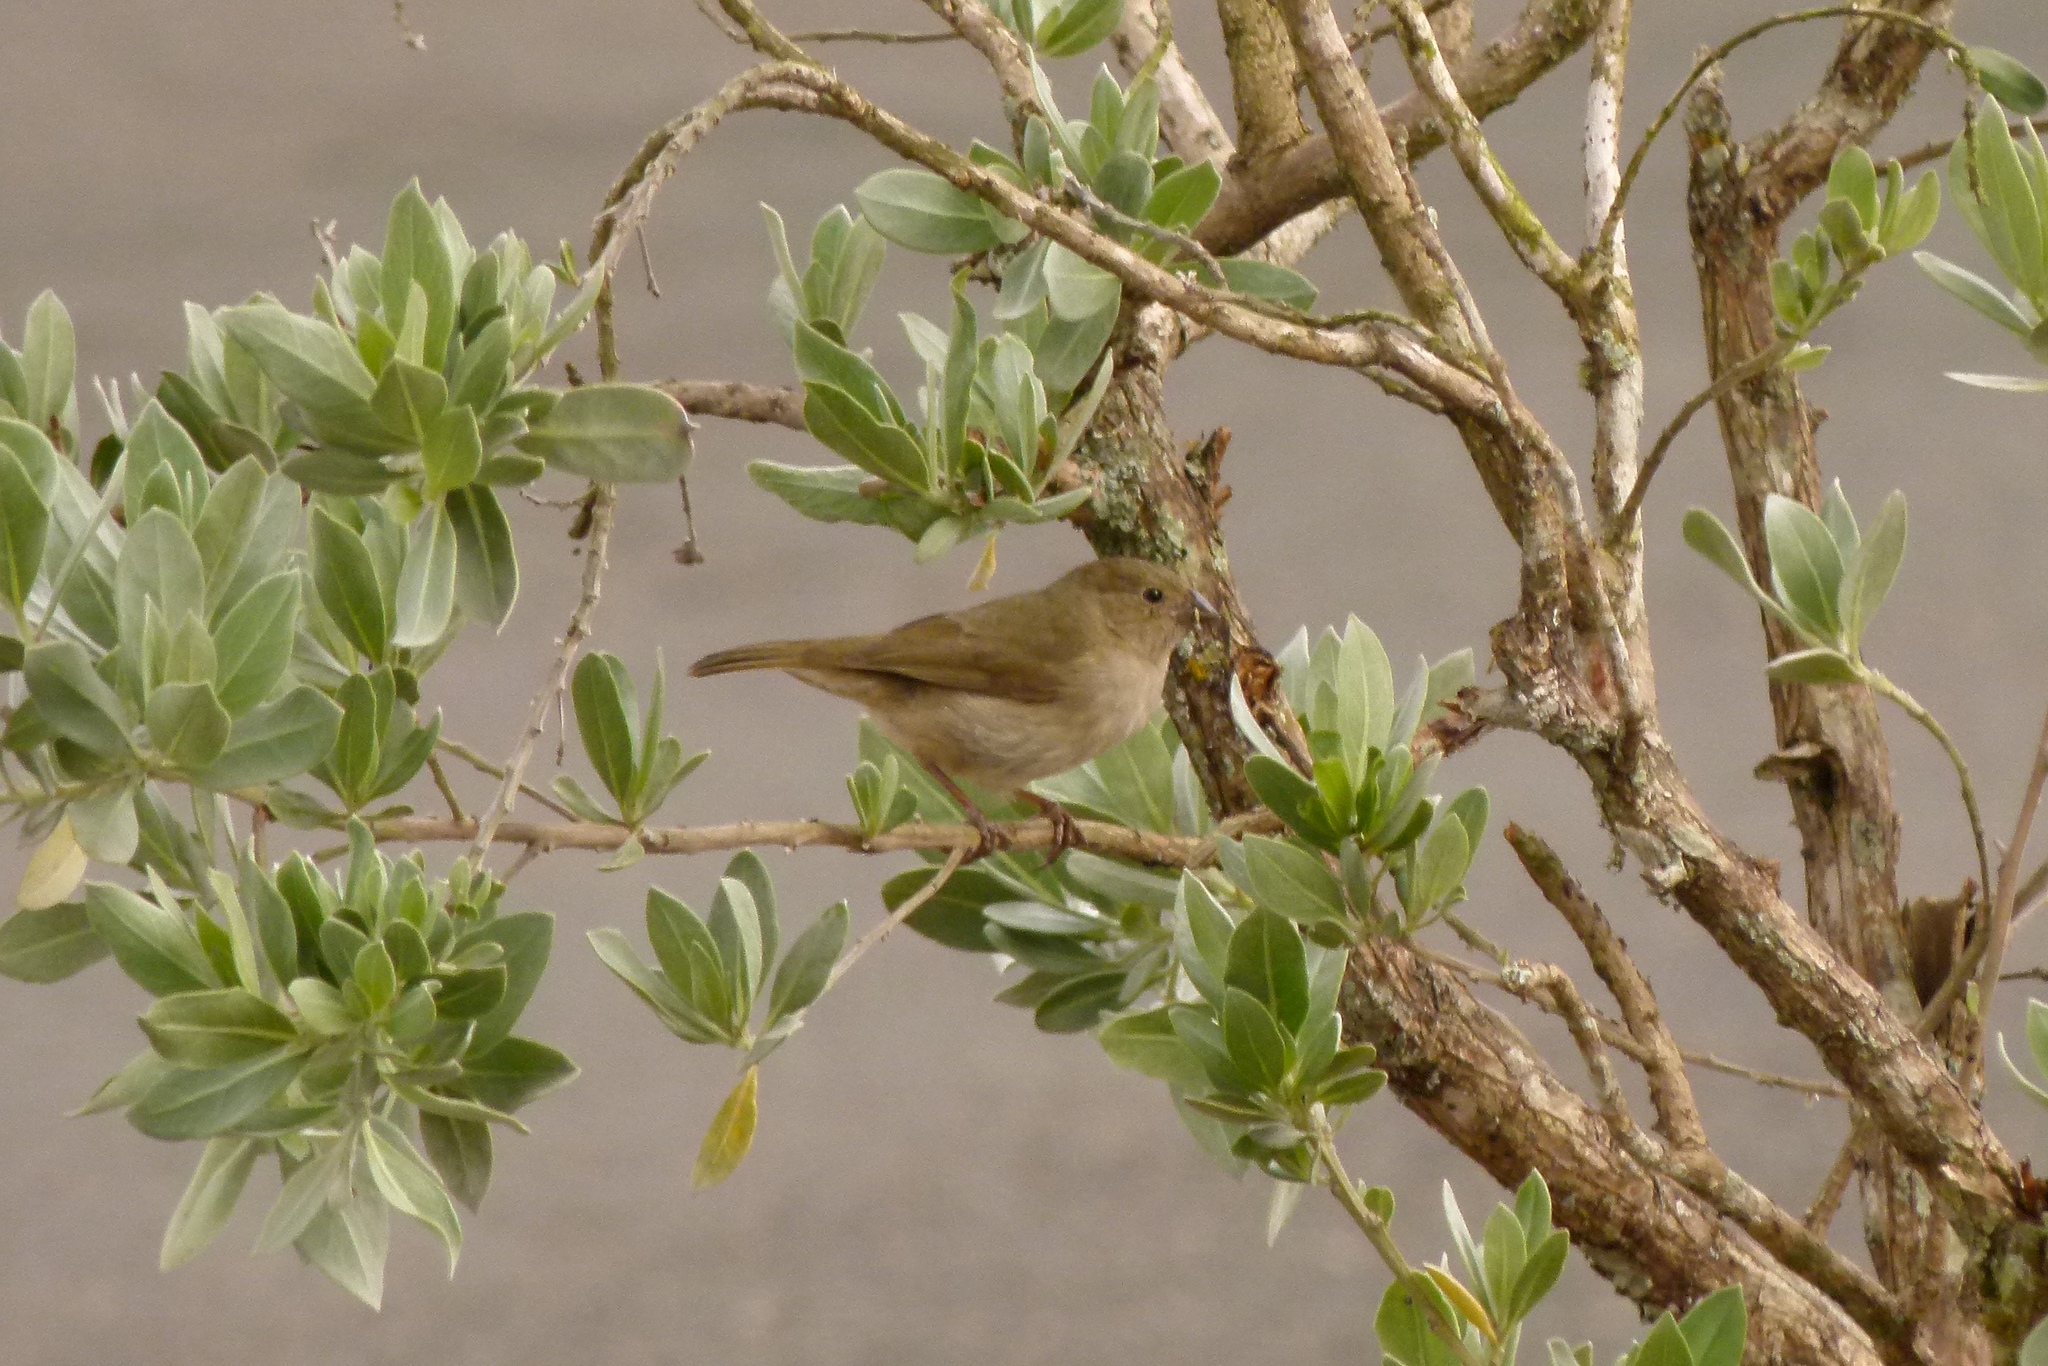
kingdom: Animalia
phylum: Chordata
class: Aves
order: Passeriformes
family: Thraupidae
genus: Melanospiza
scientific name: Melanospiza bicolor
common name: Black-faced grassquit
